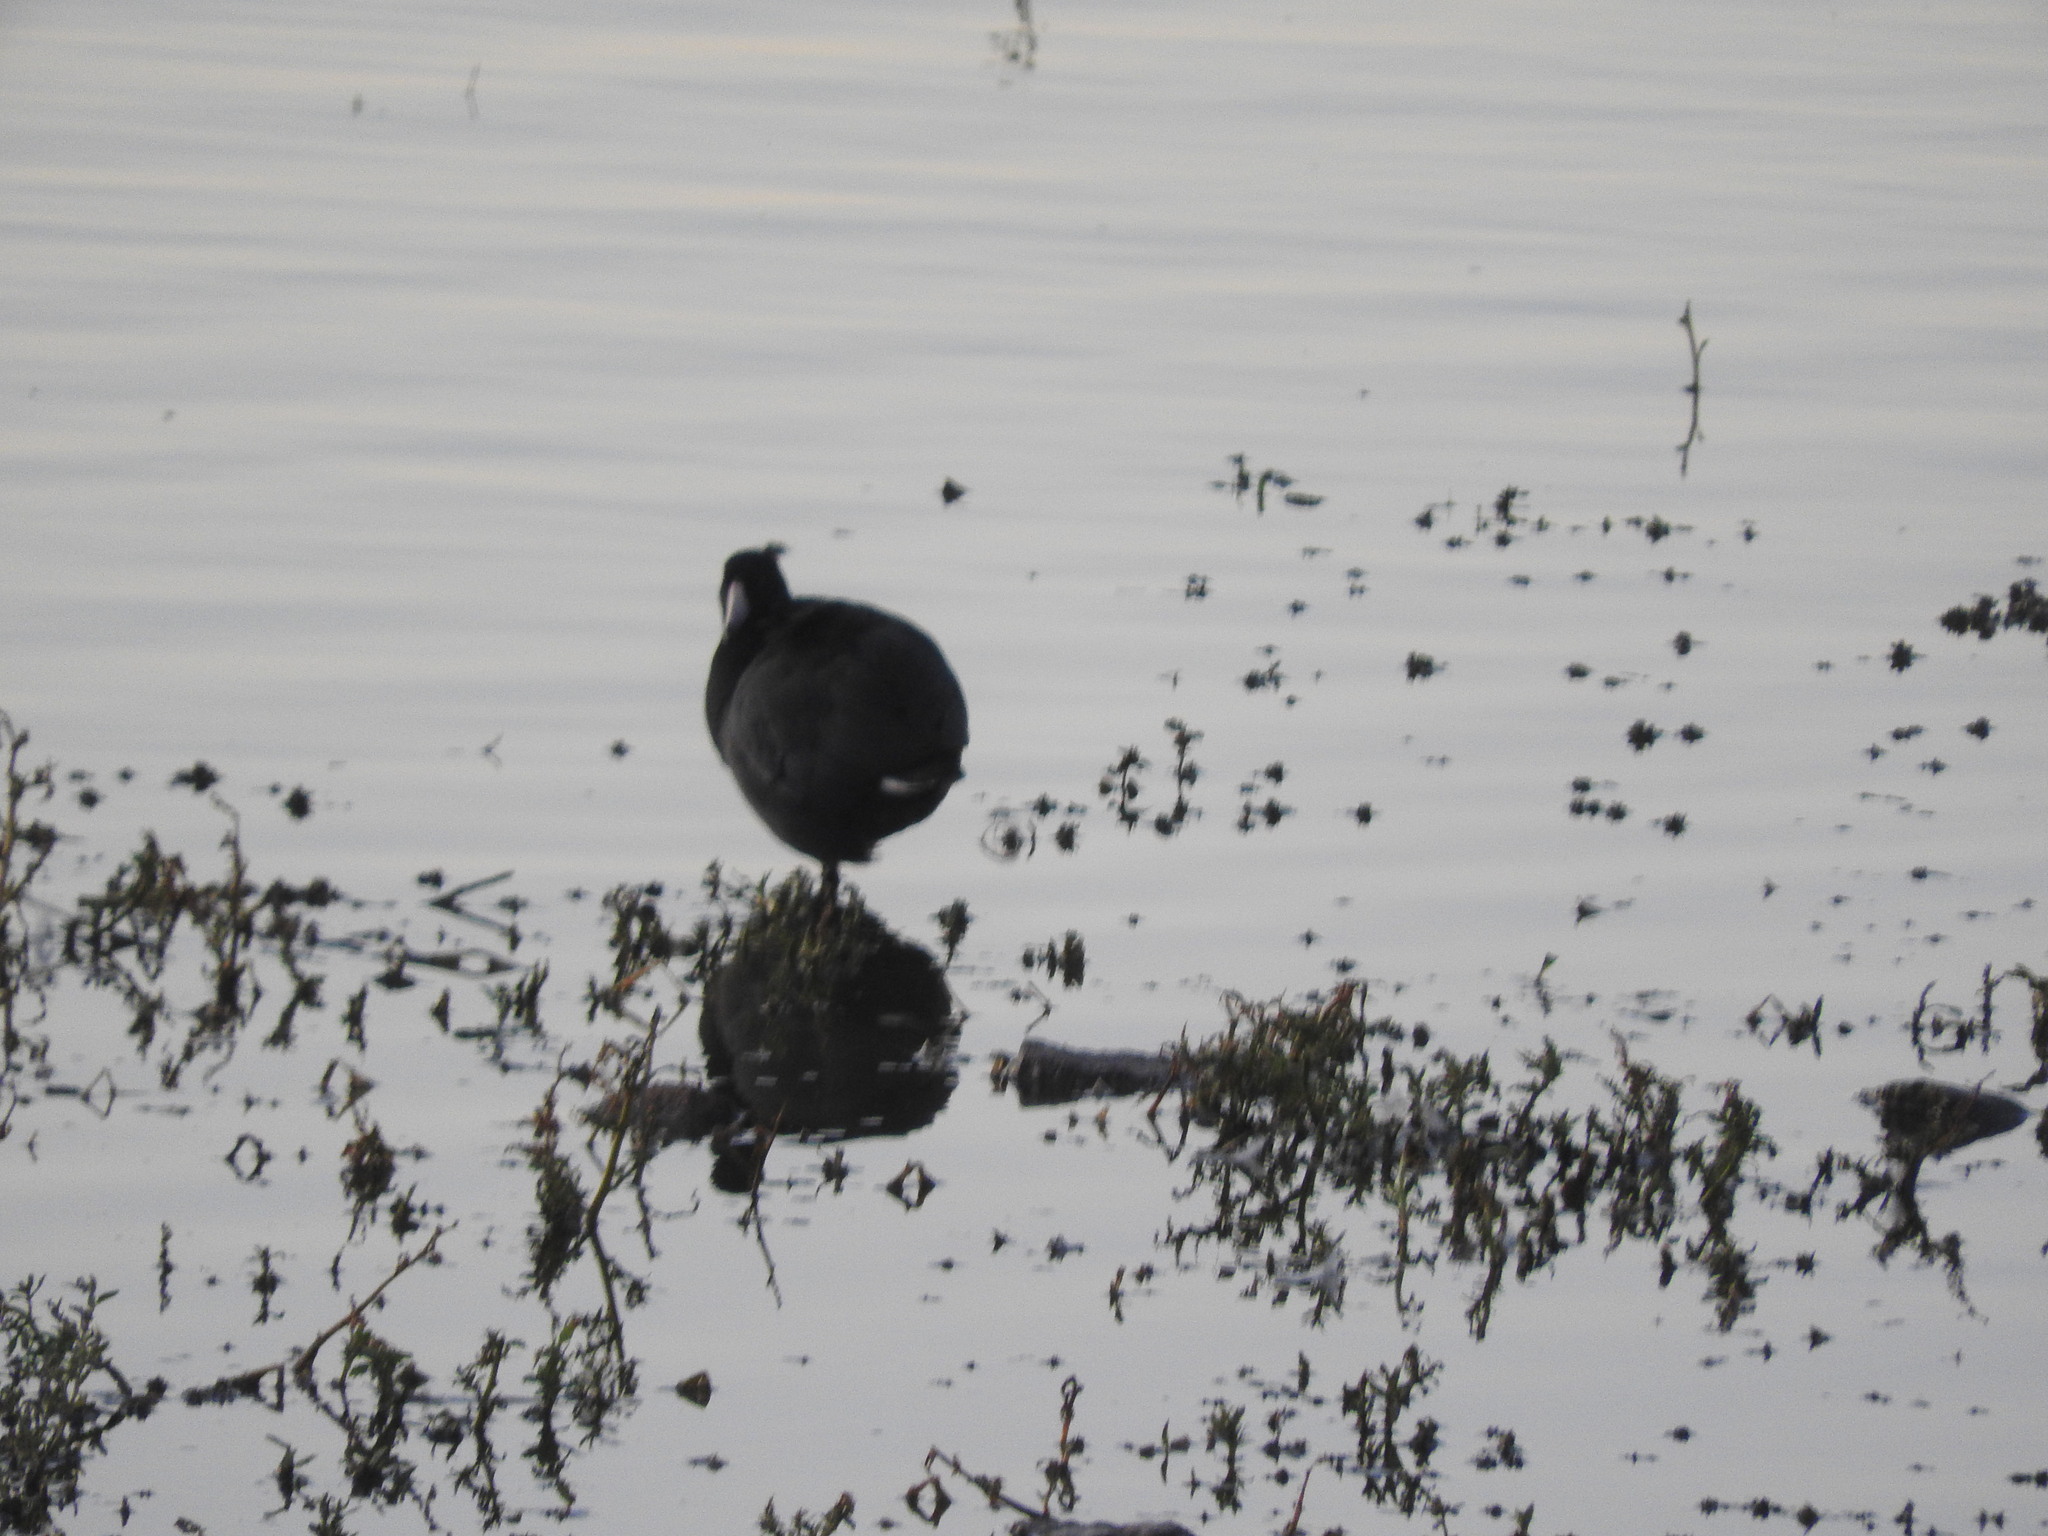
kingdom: Animalia
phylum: Chordata
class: Aves
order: Gruiformes
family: Rallidae
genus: Fulica
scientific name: Fulica americana
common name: American coot
